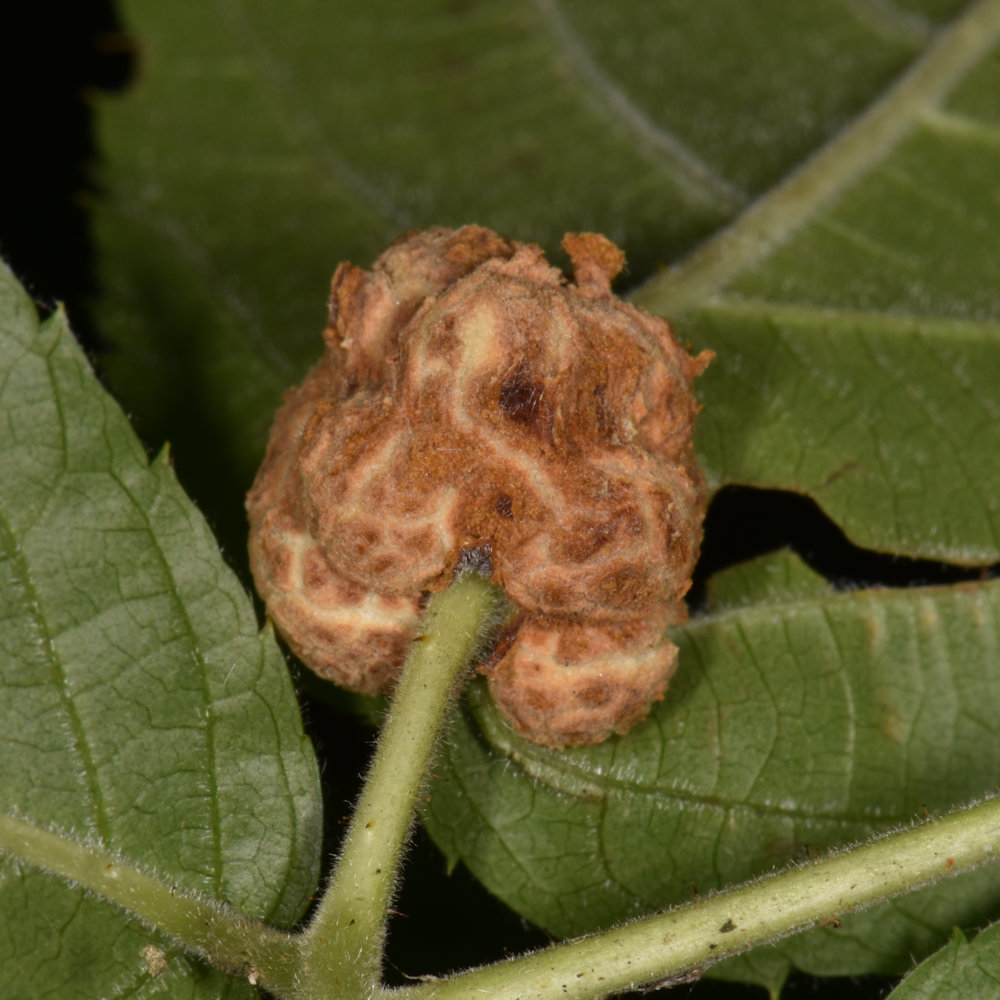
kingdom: Animalia
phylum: Arthropoda
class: Insecta
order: Diptera
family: Cecidomyiidae
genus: Neolasioptera
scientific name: Neolasioptera farinosa
